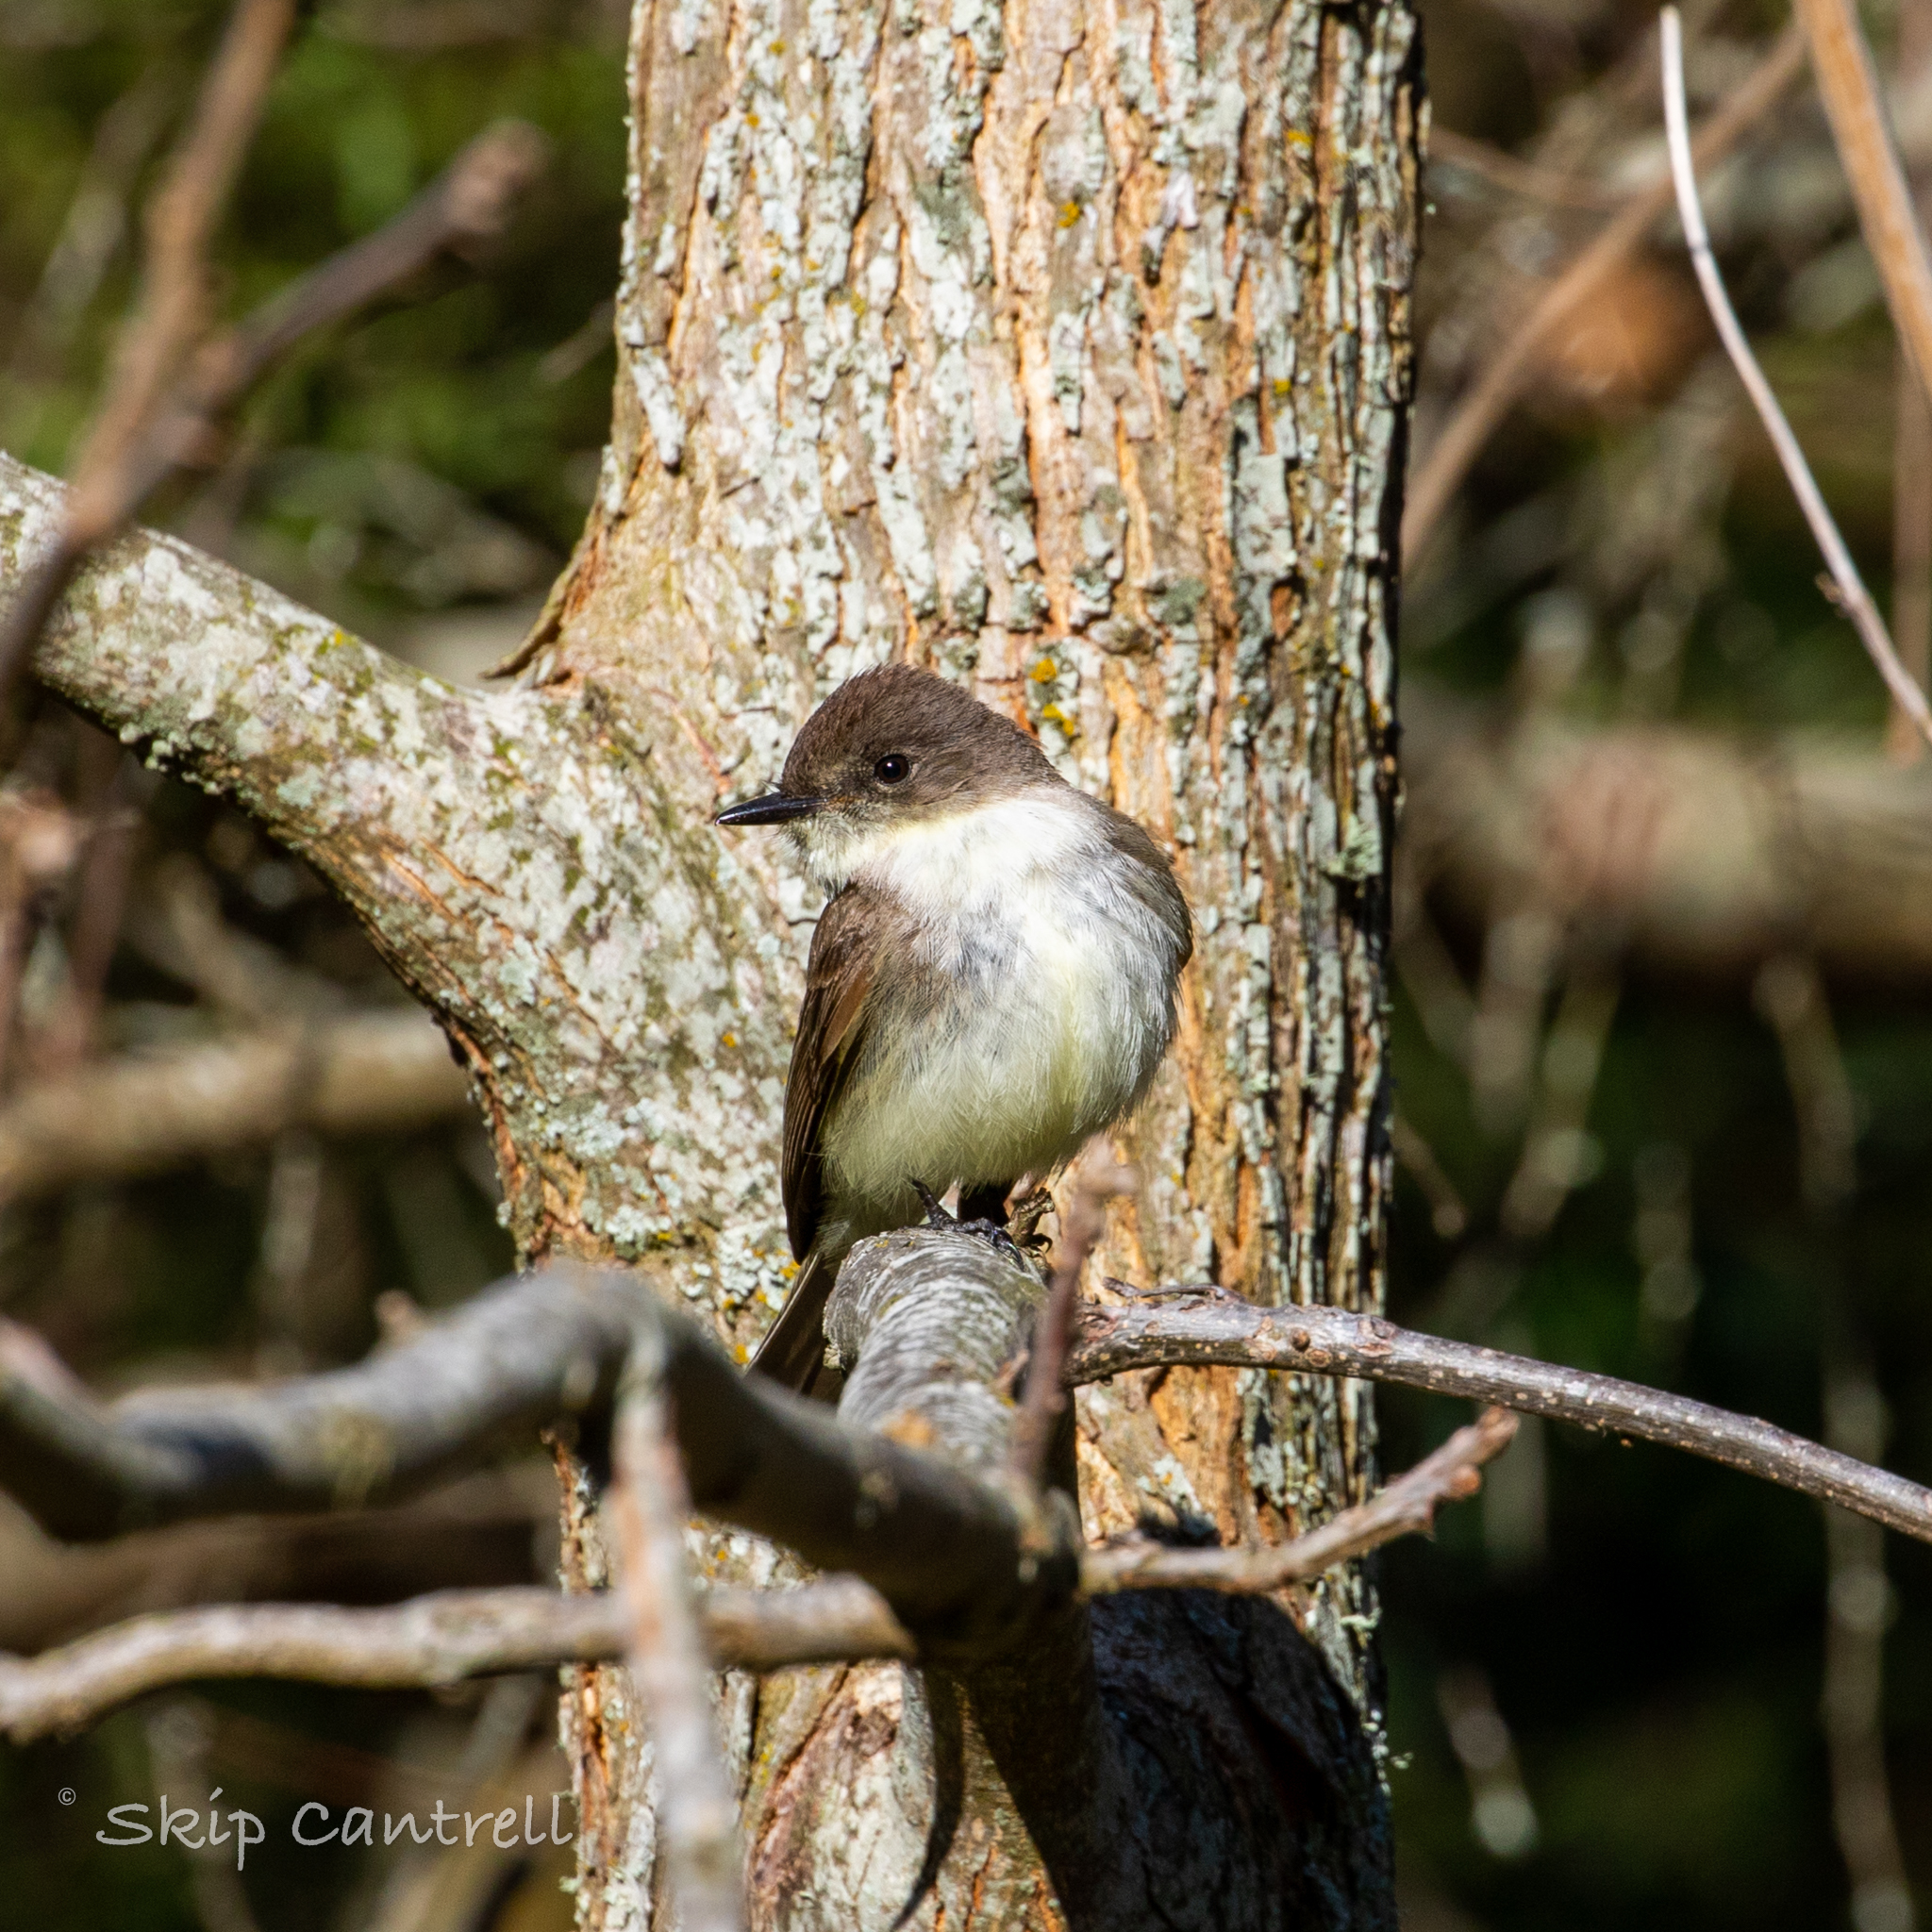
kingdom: Animalia
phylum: Chordata
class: Aves
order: Passeriformes
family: Tyrannidae
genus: Sayornis
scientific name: Sayornis phoebe
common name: Eastern phoebe
